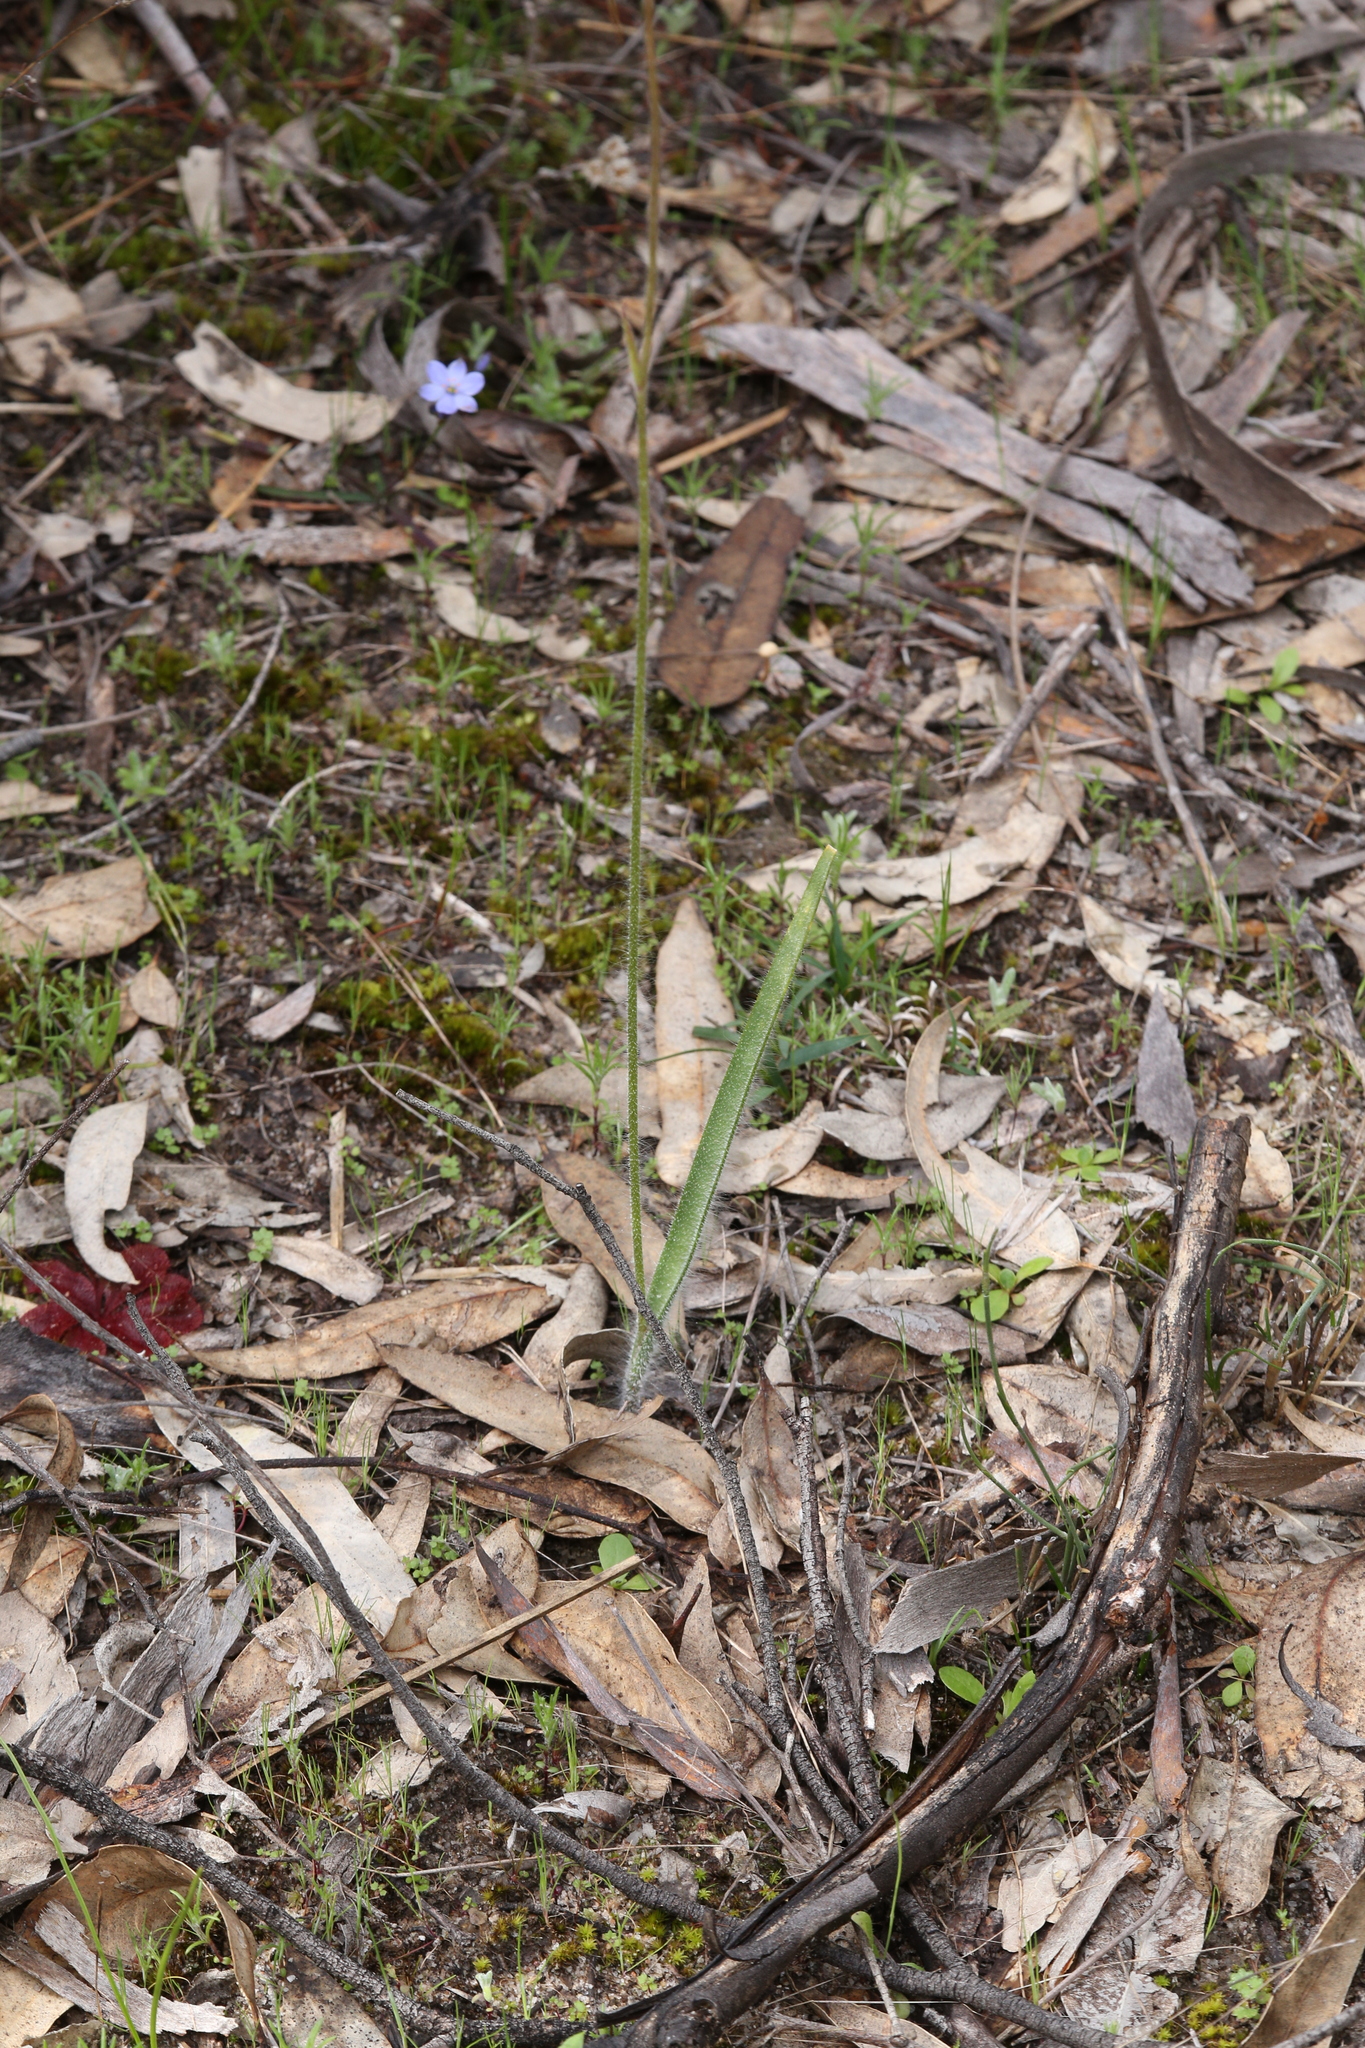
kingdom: Plantae
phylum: Tracheophyta
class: Liliopsida
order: Asparagales
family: Orchidaceae
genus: Caladenia
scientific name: Caladenia longicauda
